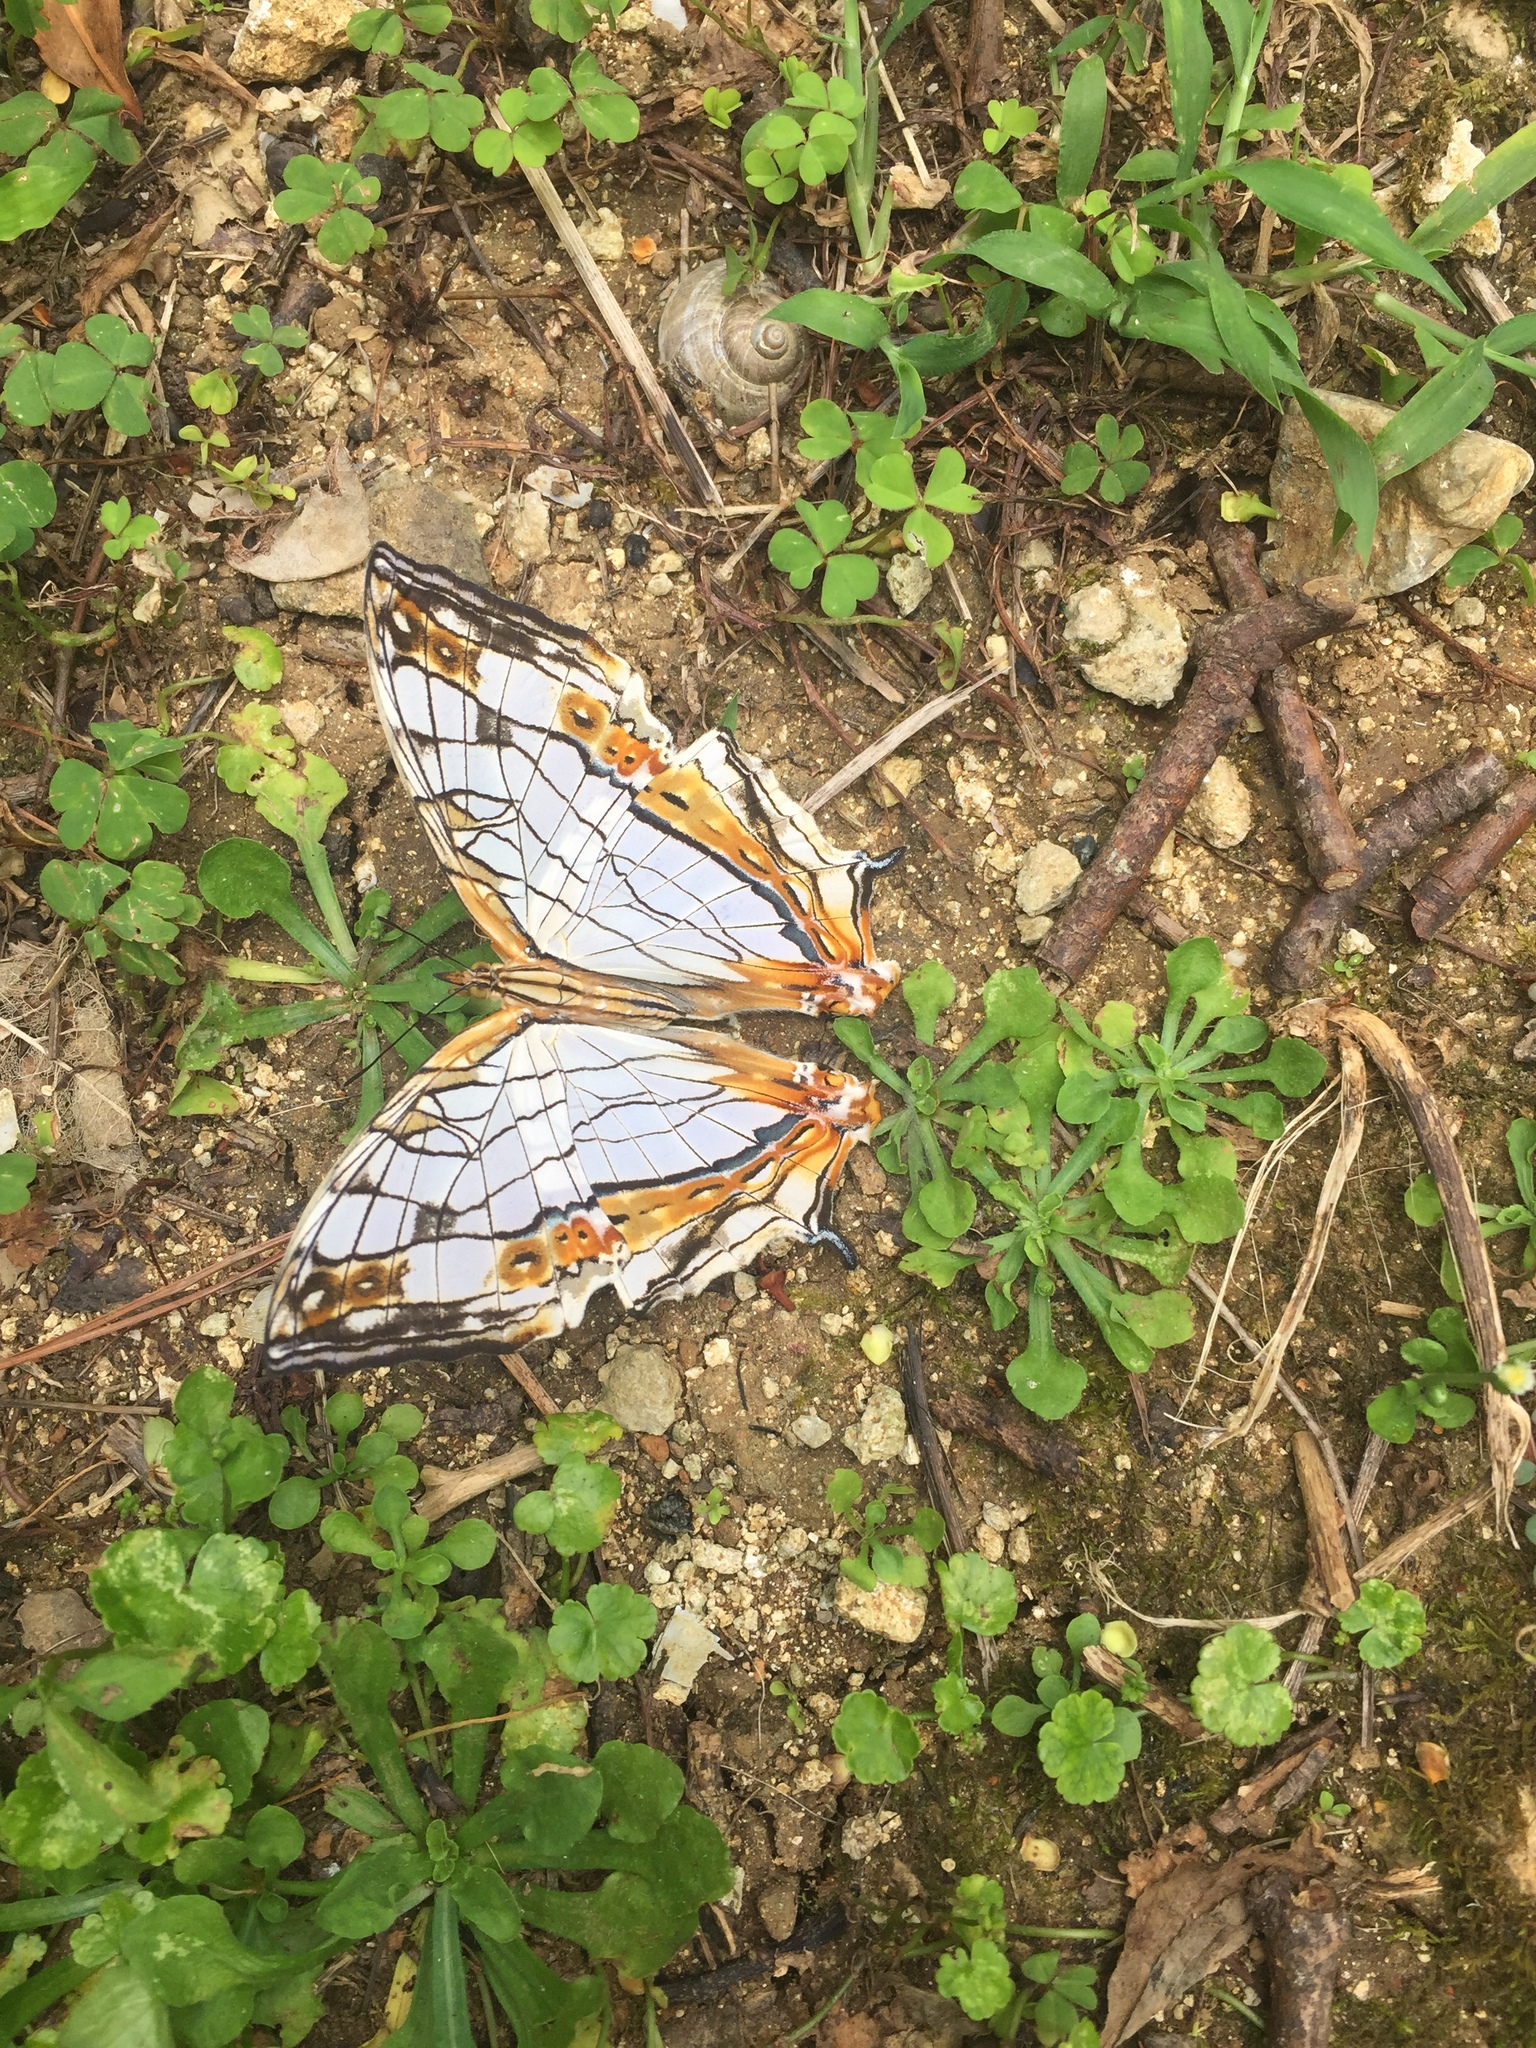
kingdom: Animalia
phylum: Arthropoda
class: Insecta
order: Lepidoptera
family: Nymphalidae
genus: Cyrestis
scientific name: Cyrestis thyodamas
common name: Common mapwing
